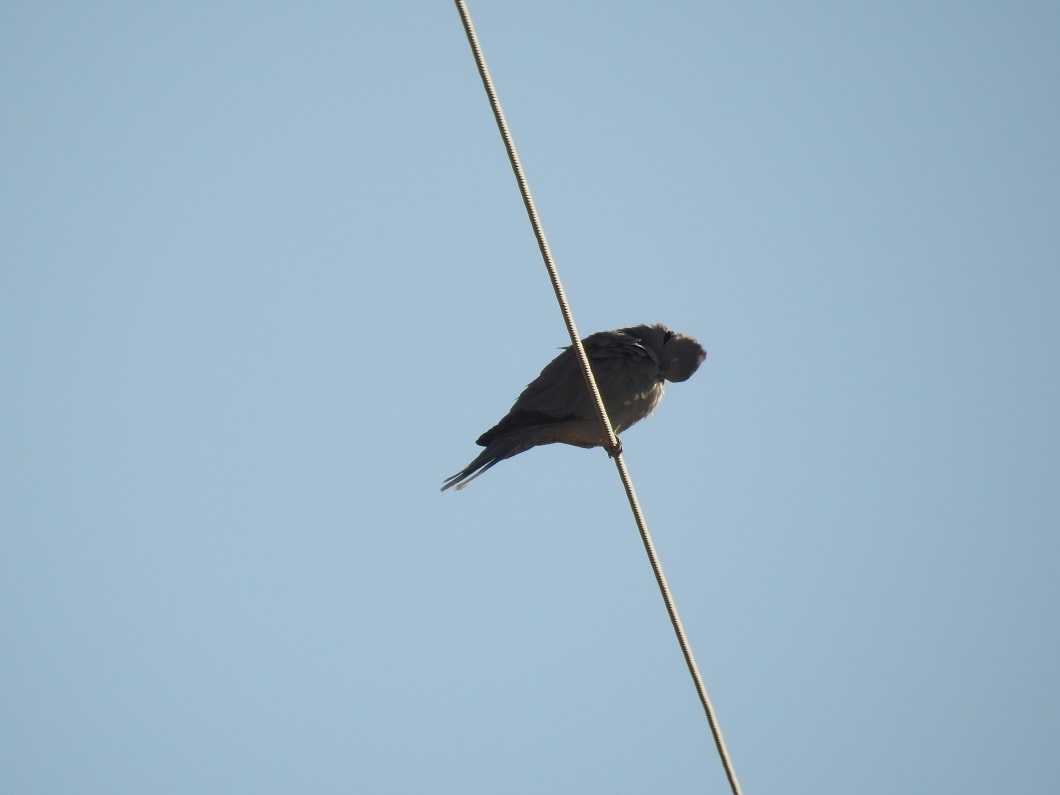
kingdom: Animalia
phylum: Chordata
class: Aves
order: Columbiformes
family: Columbidae
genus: Streptopelia
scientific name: Streptopelia decaocto
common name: Eurasian collared dove
